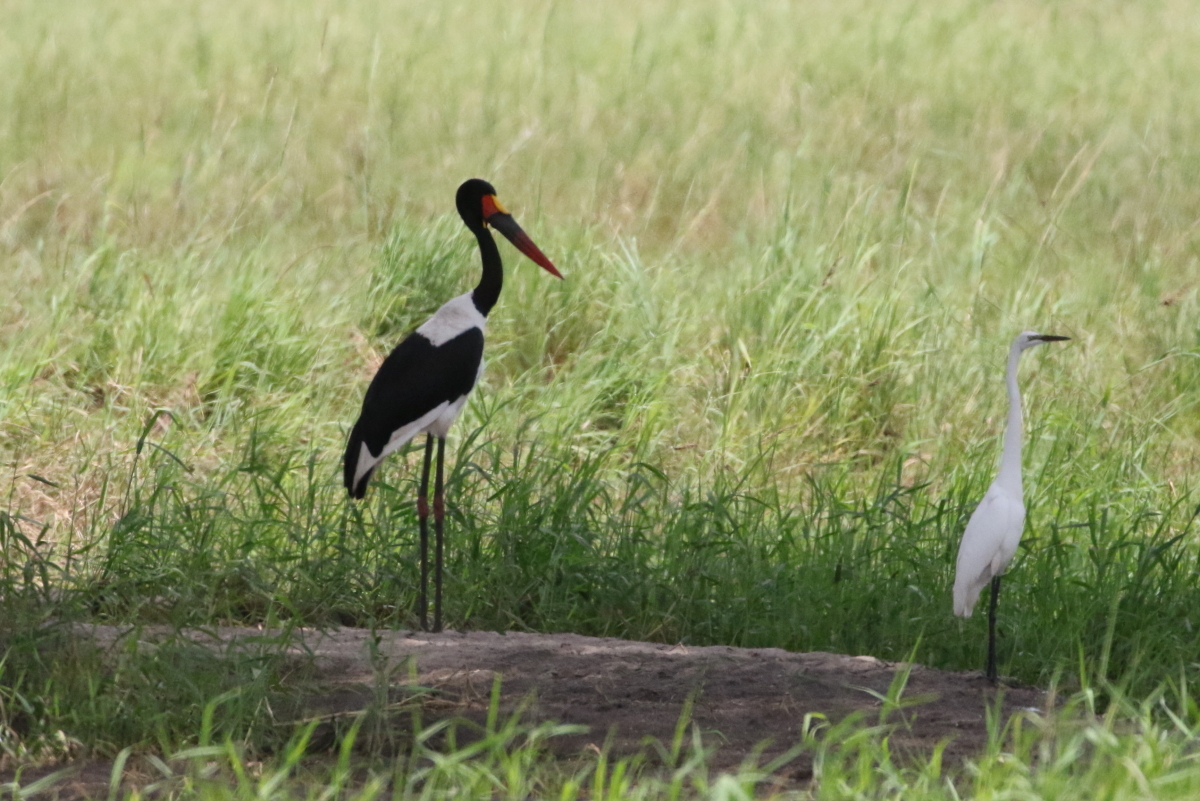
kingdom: Animalia
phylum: Chordata
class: Aves
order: Pelecaniformes
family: Ardeidae
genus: Egretta
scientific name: Egretta intermedia
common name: Intermediate egret
